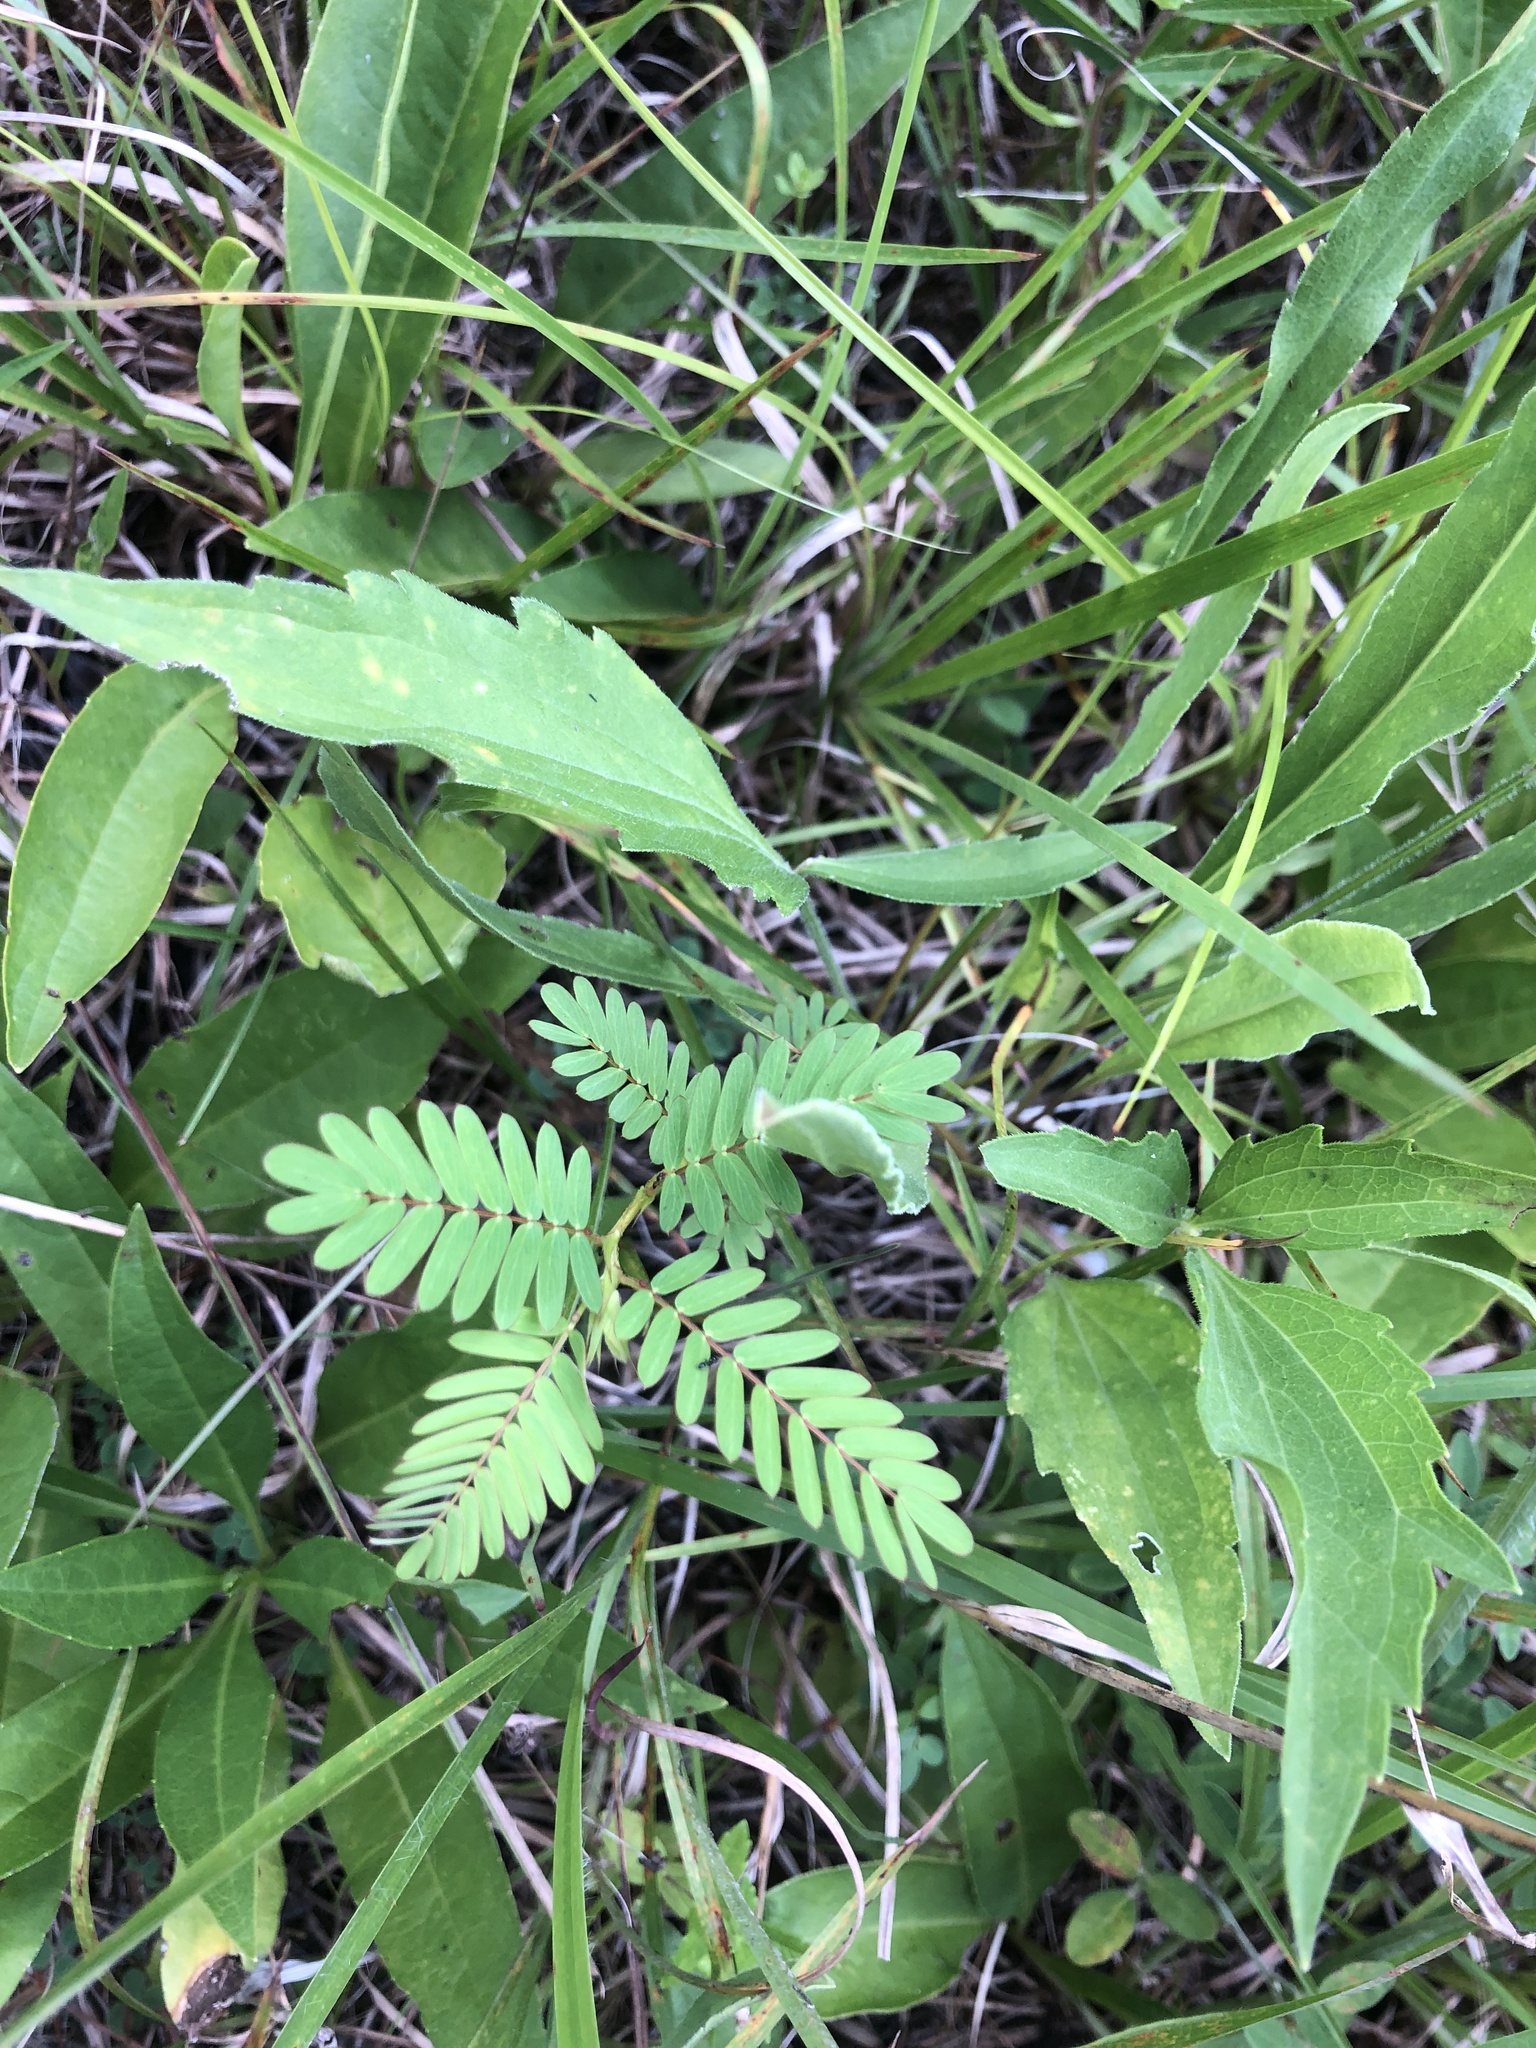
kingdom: Plantae
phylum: Tracheophyta
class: Magnoliopsida
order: Fabales
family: Fabaceae
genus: Chamaecrista
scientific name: Chamaecrista fasciculata
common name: Golden cassia
